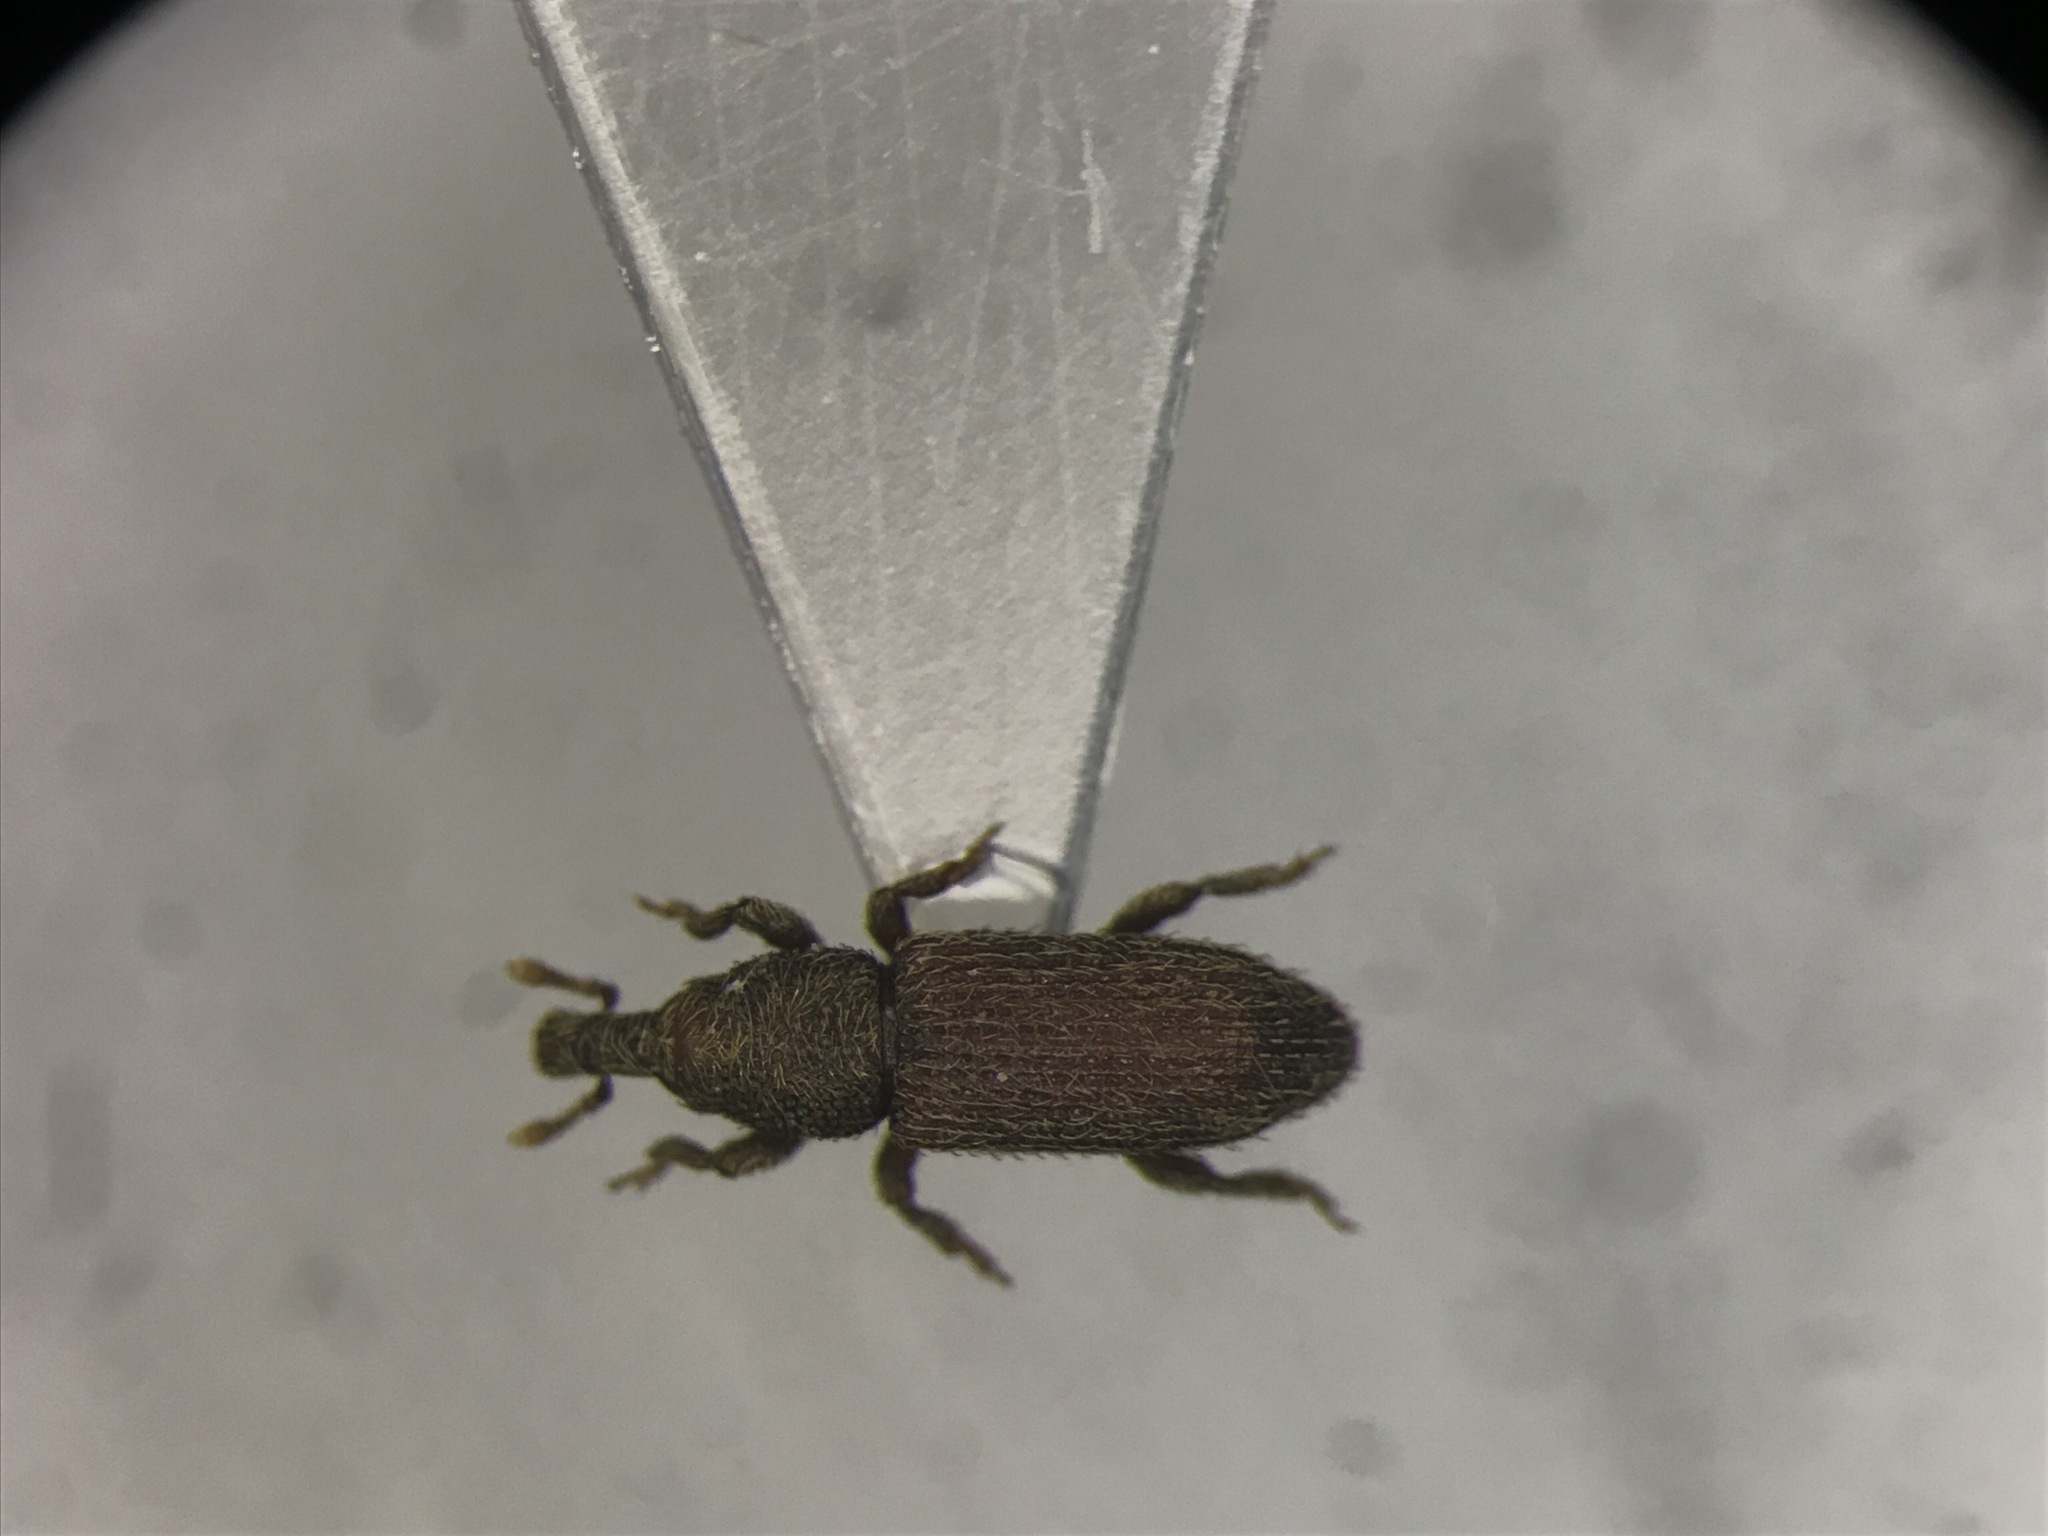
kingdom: Animalia
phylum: Arthropoda
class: Insecta
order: Coleoptera
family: Curculionidae
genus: Himatium
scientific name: Himatium errans
